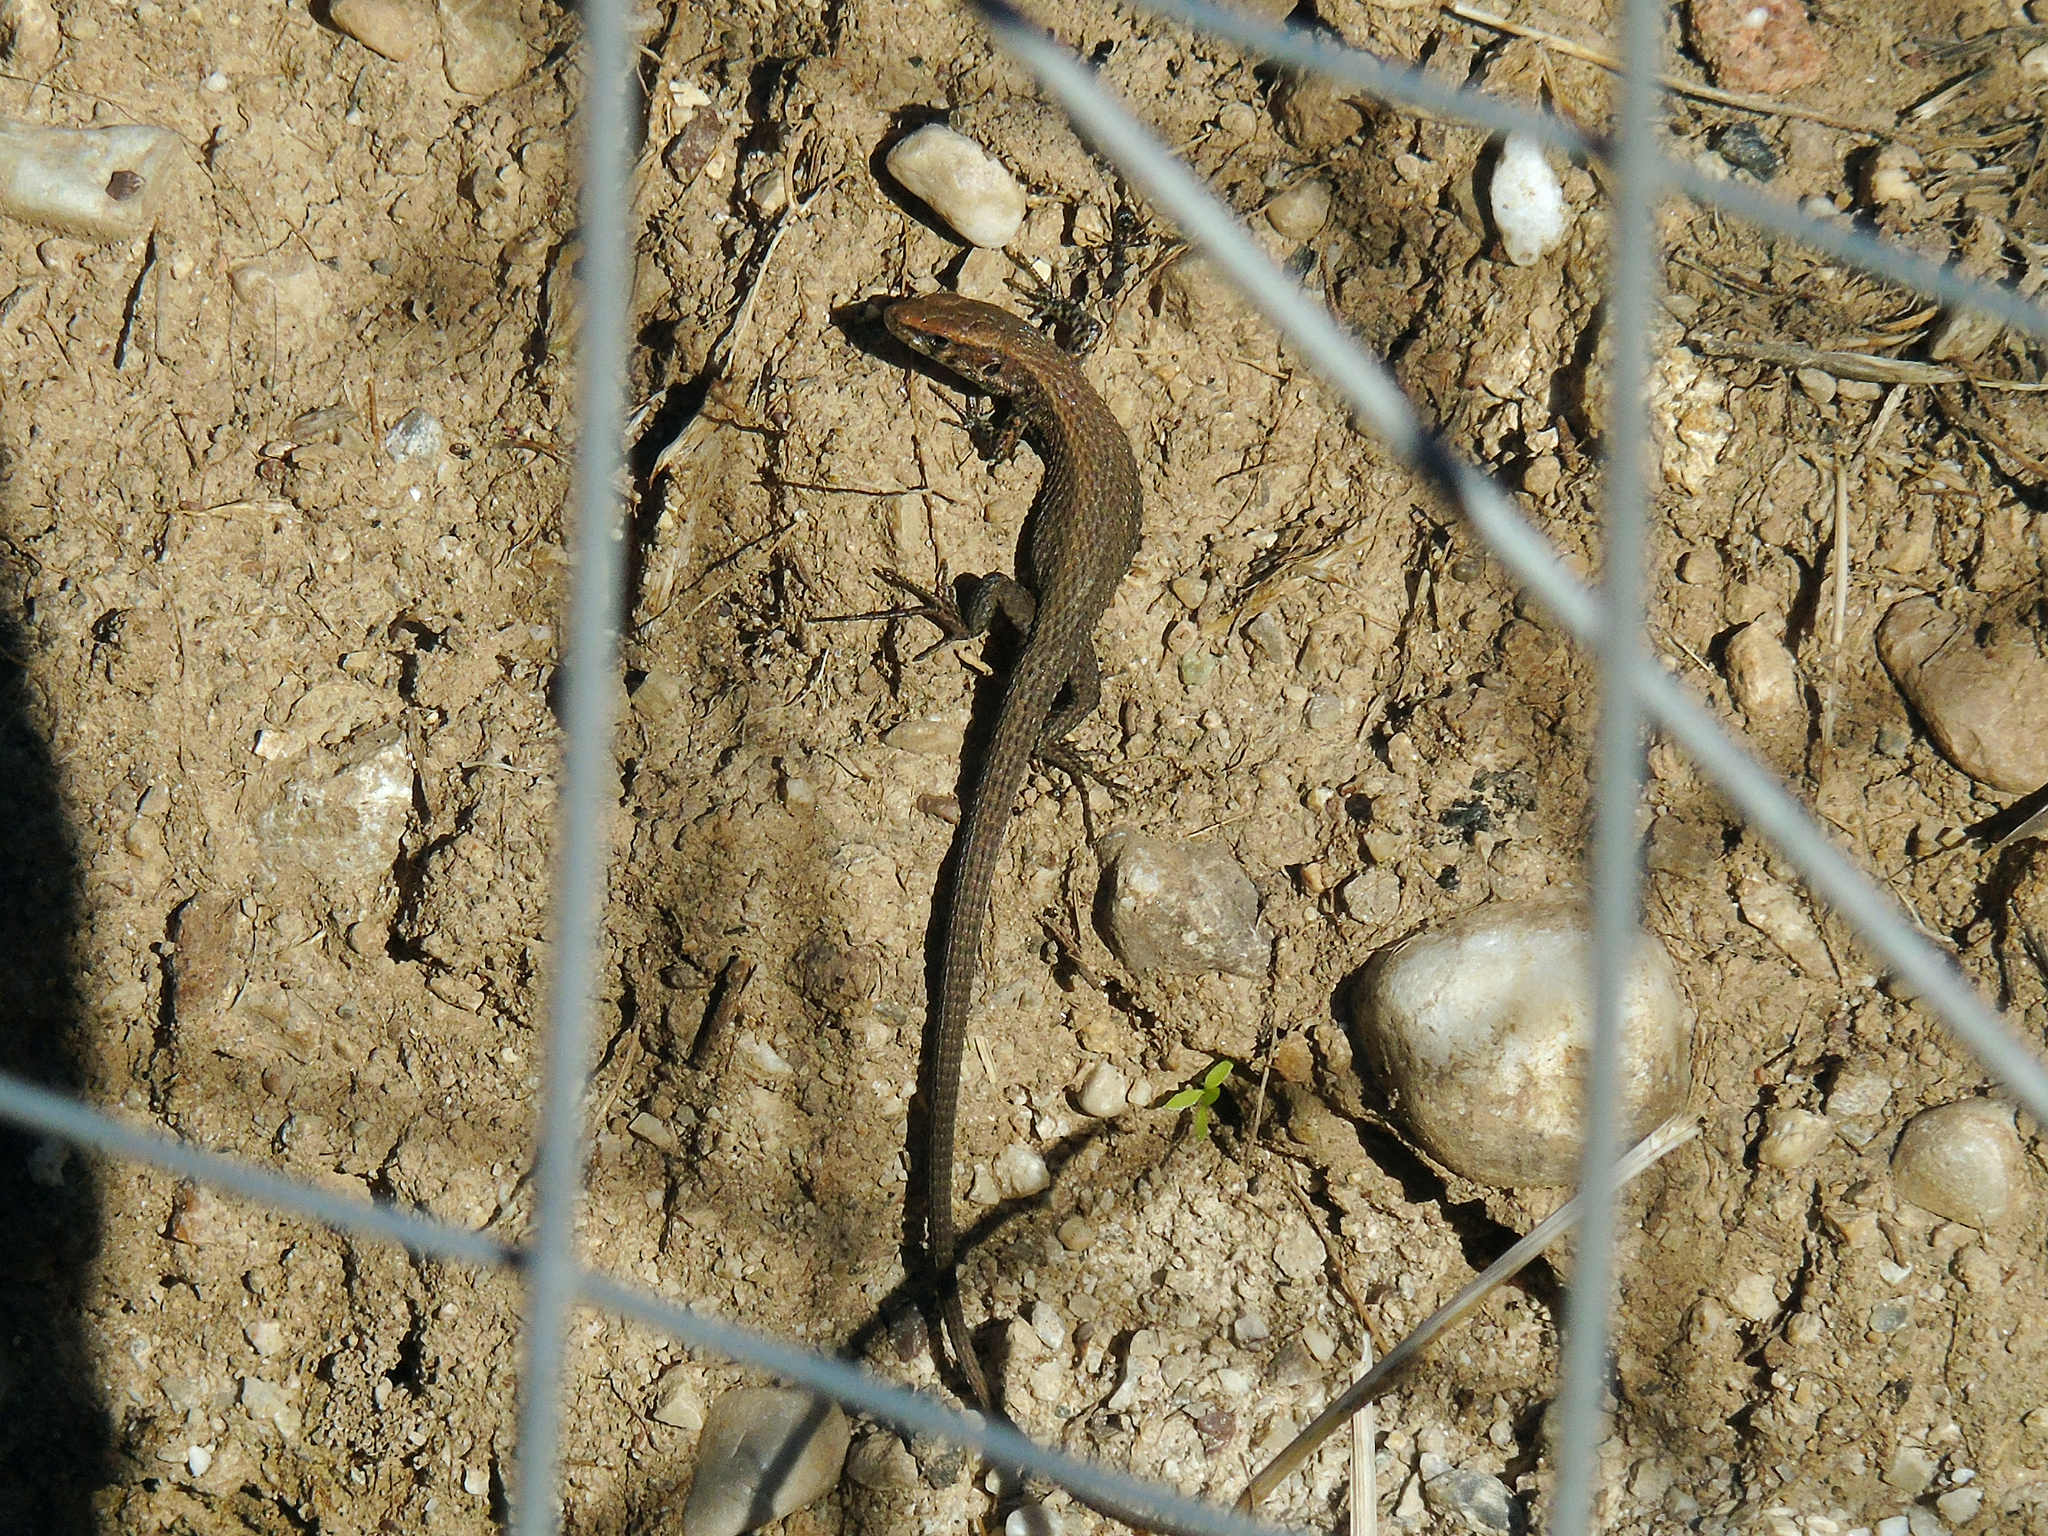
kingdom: Animalia
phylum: Chordata
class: Squamata
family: Lacertidae
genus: Algyroides
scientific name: Algyroides moreoticus
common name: Greek algyroides
